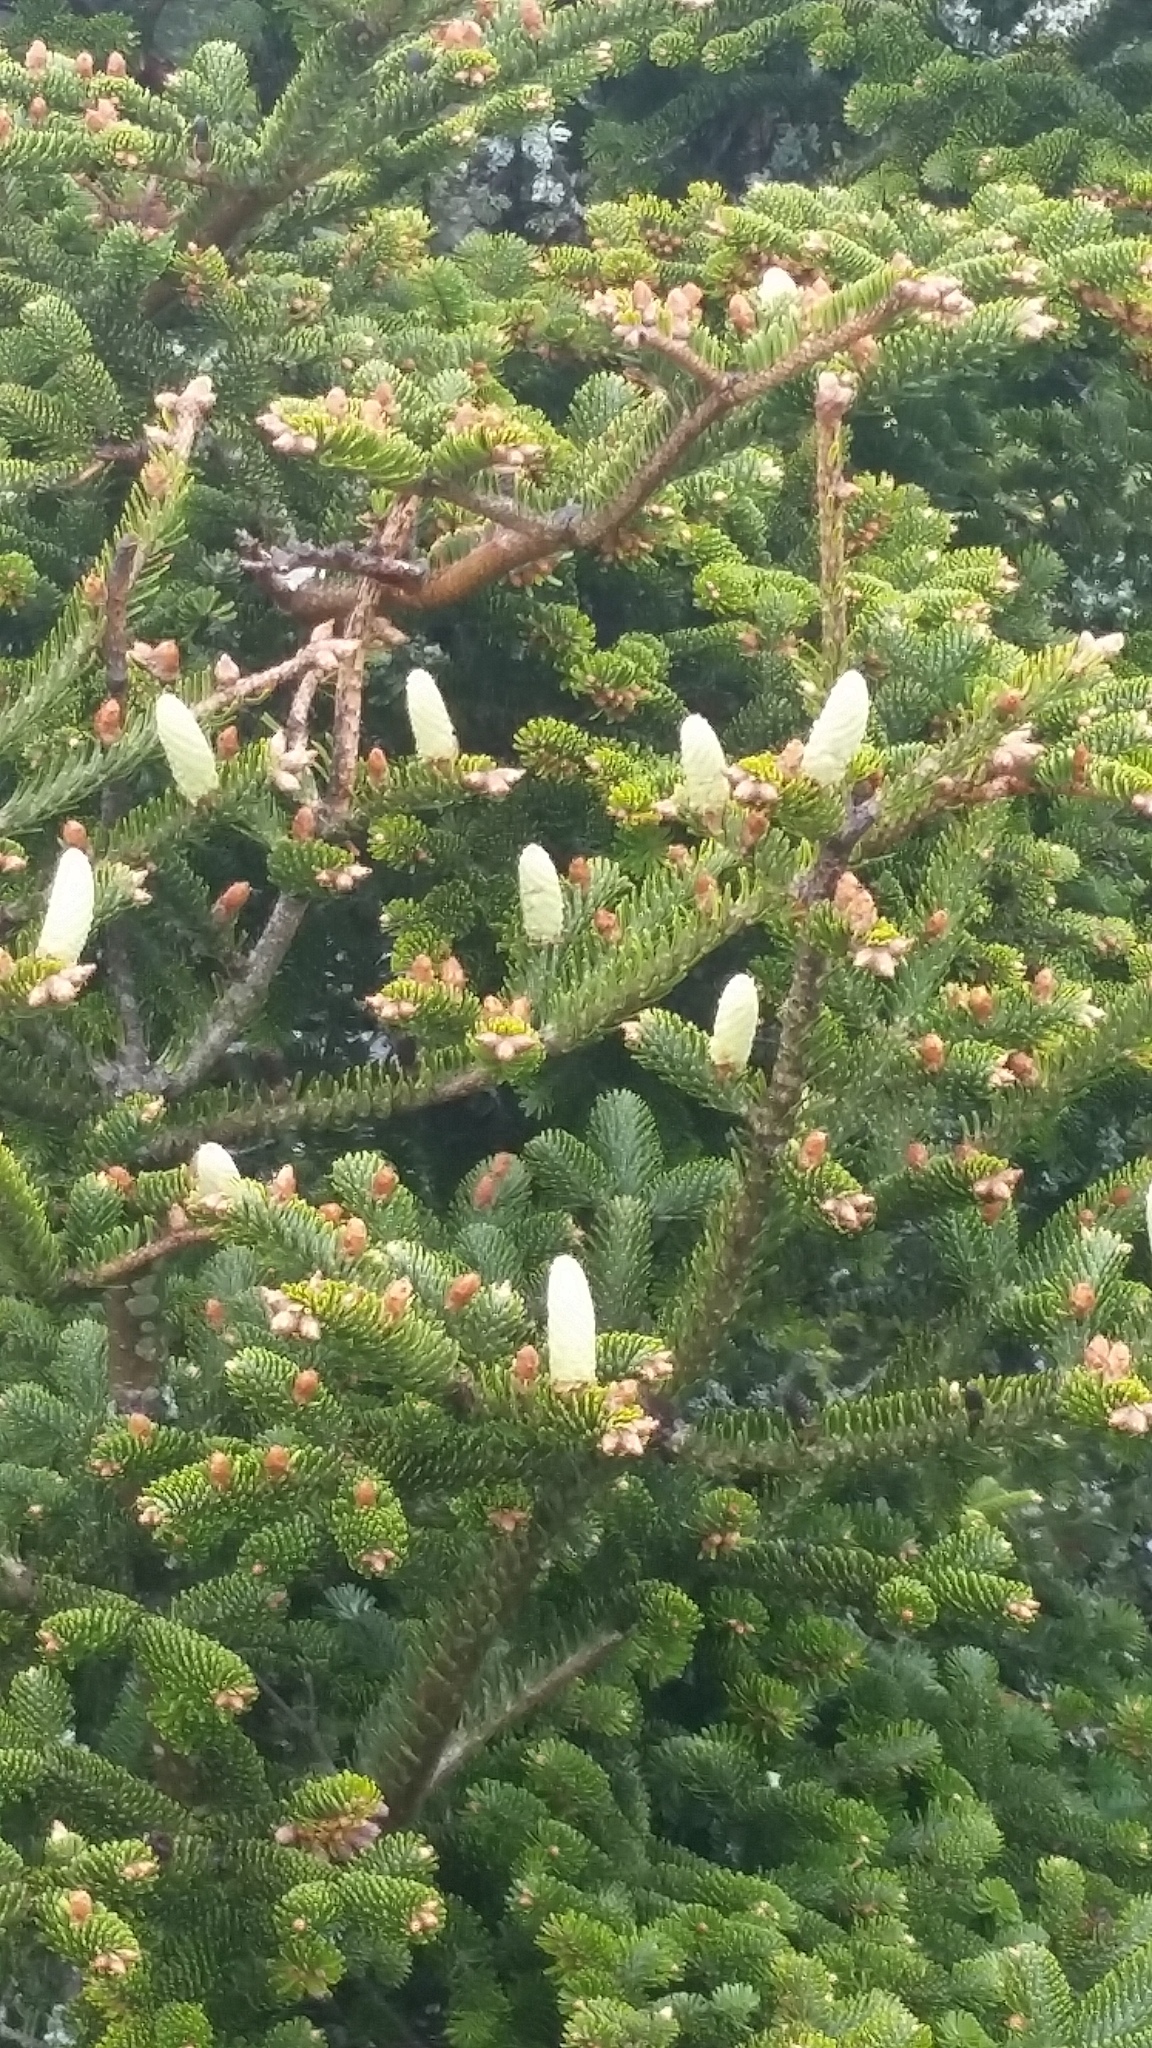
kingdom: Plantae
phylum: Tracheophyta
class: Pinopsida
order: Pinales
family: Pinaceae
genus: Abies
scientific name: Abies fraseri
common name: Fraser fir
